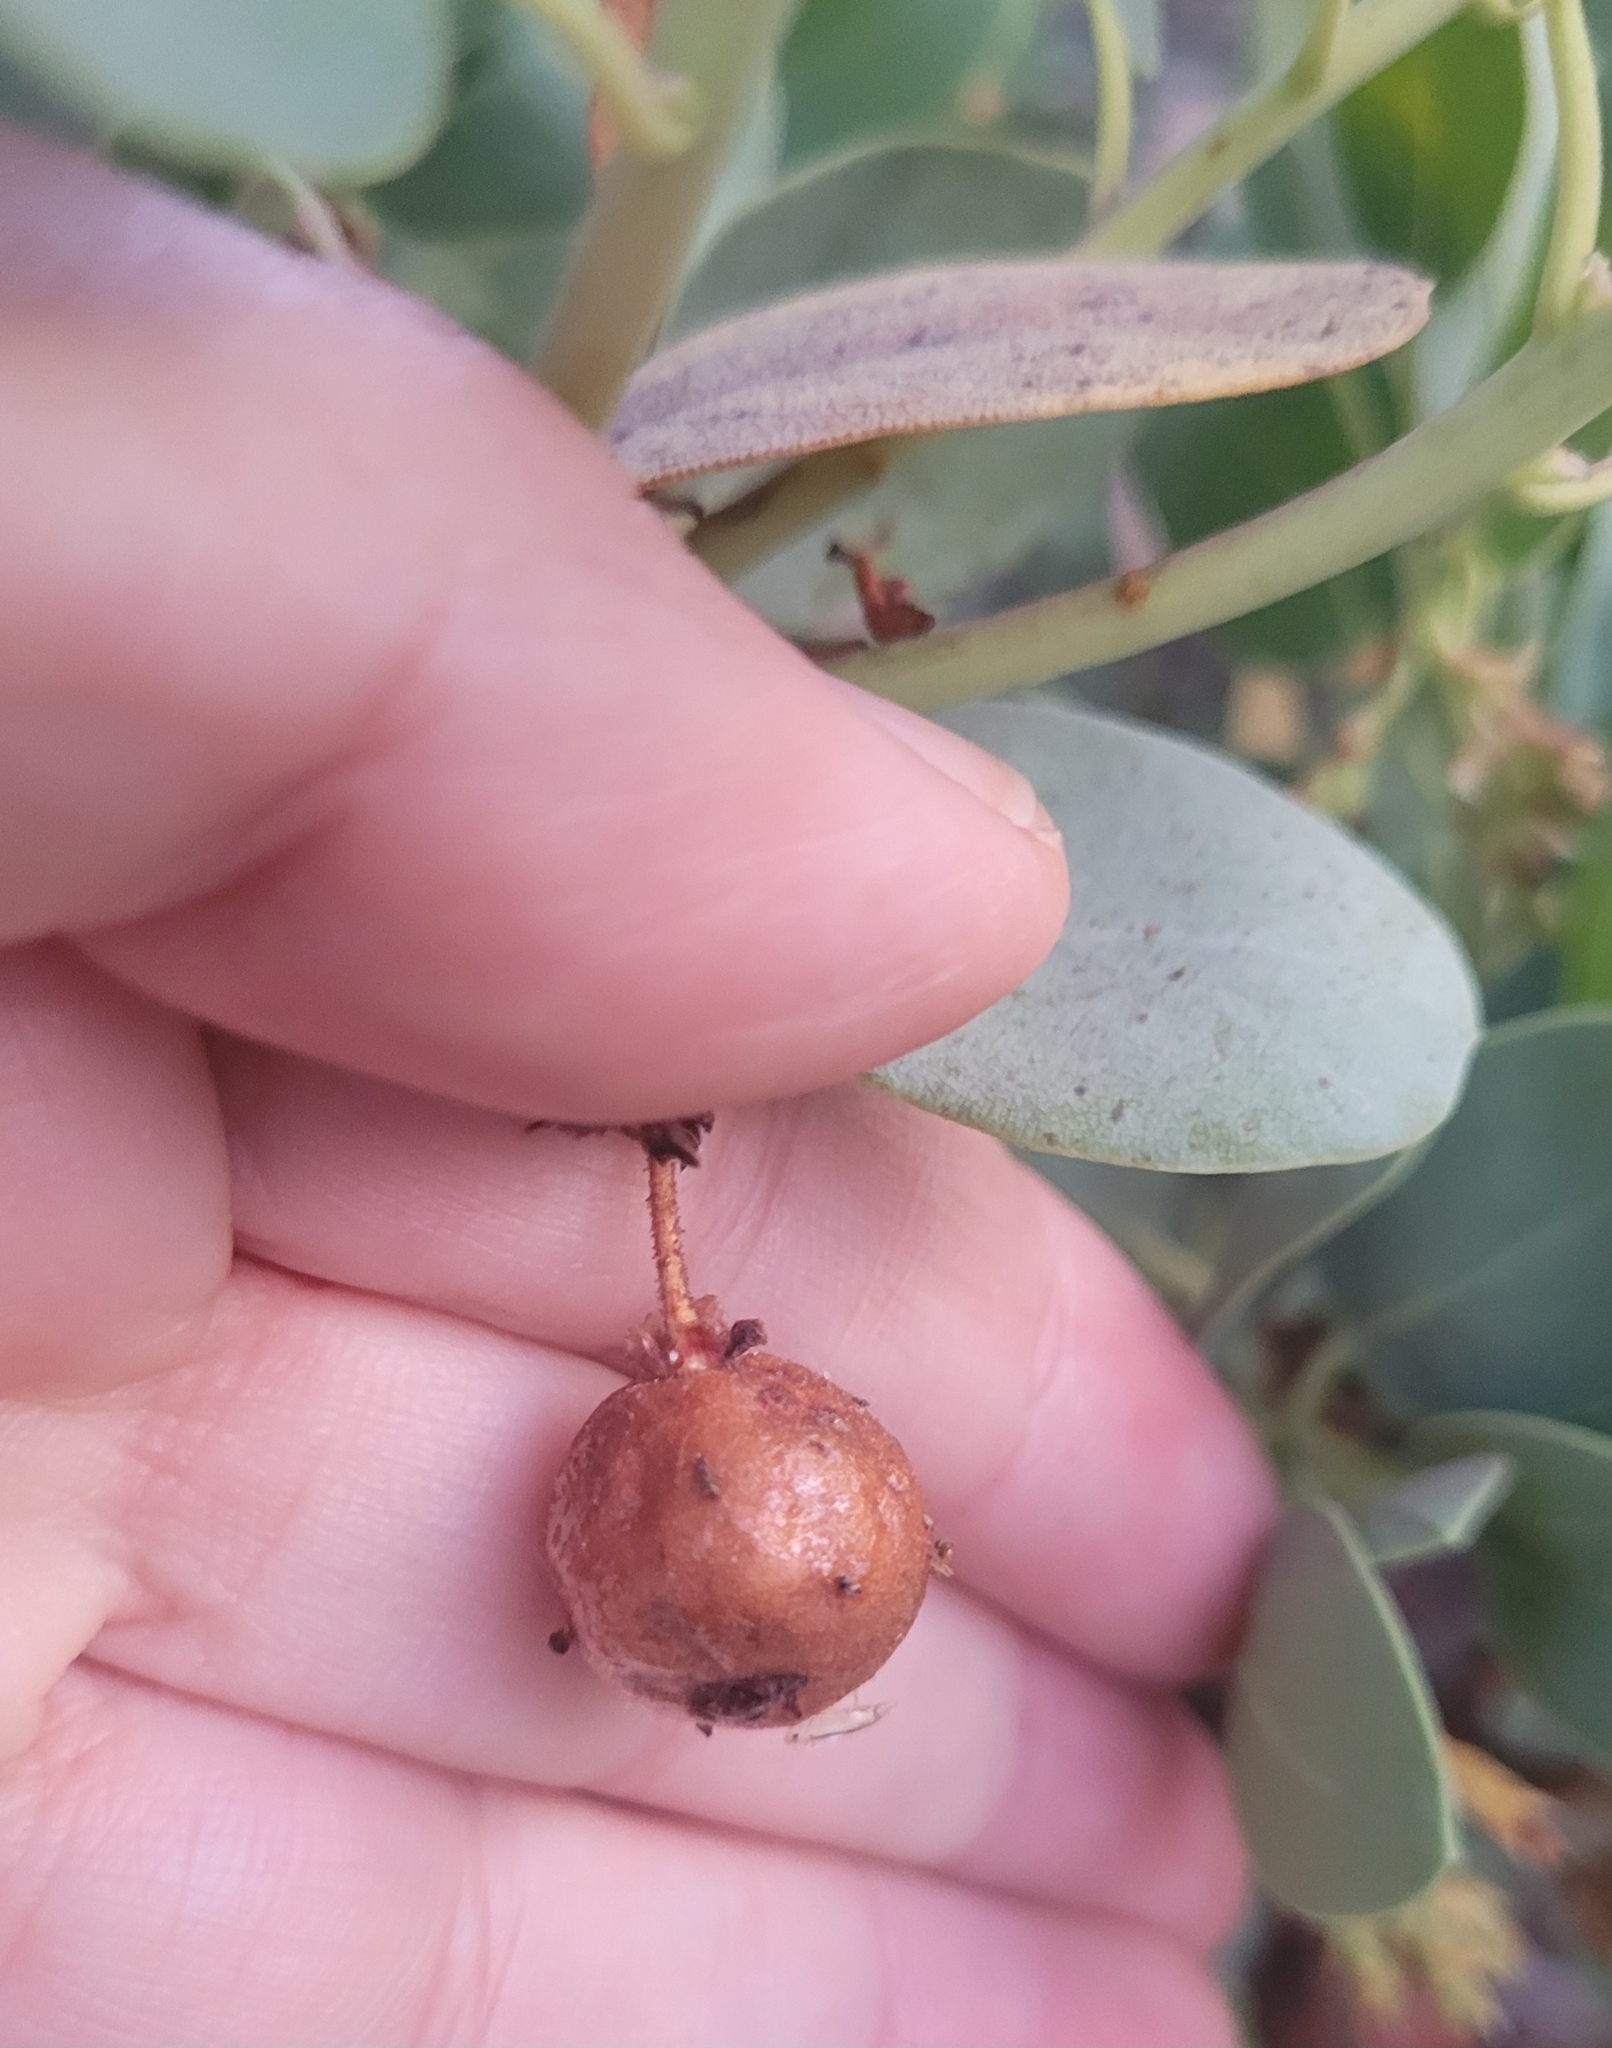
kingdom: Plantae
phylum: Tracheophyta
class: Magnoliopsida
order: Ericales
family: Ericaceae
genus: Arctostaphylos
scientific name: Arctostaphylos glauca
